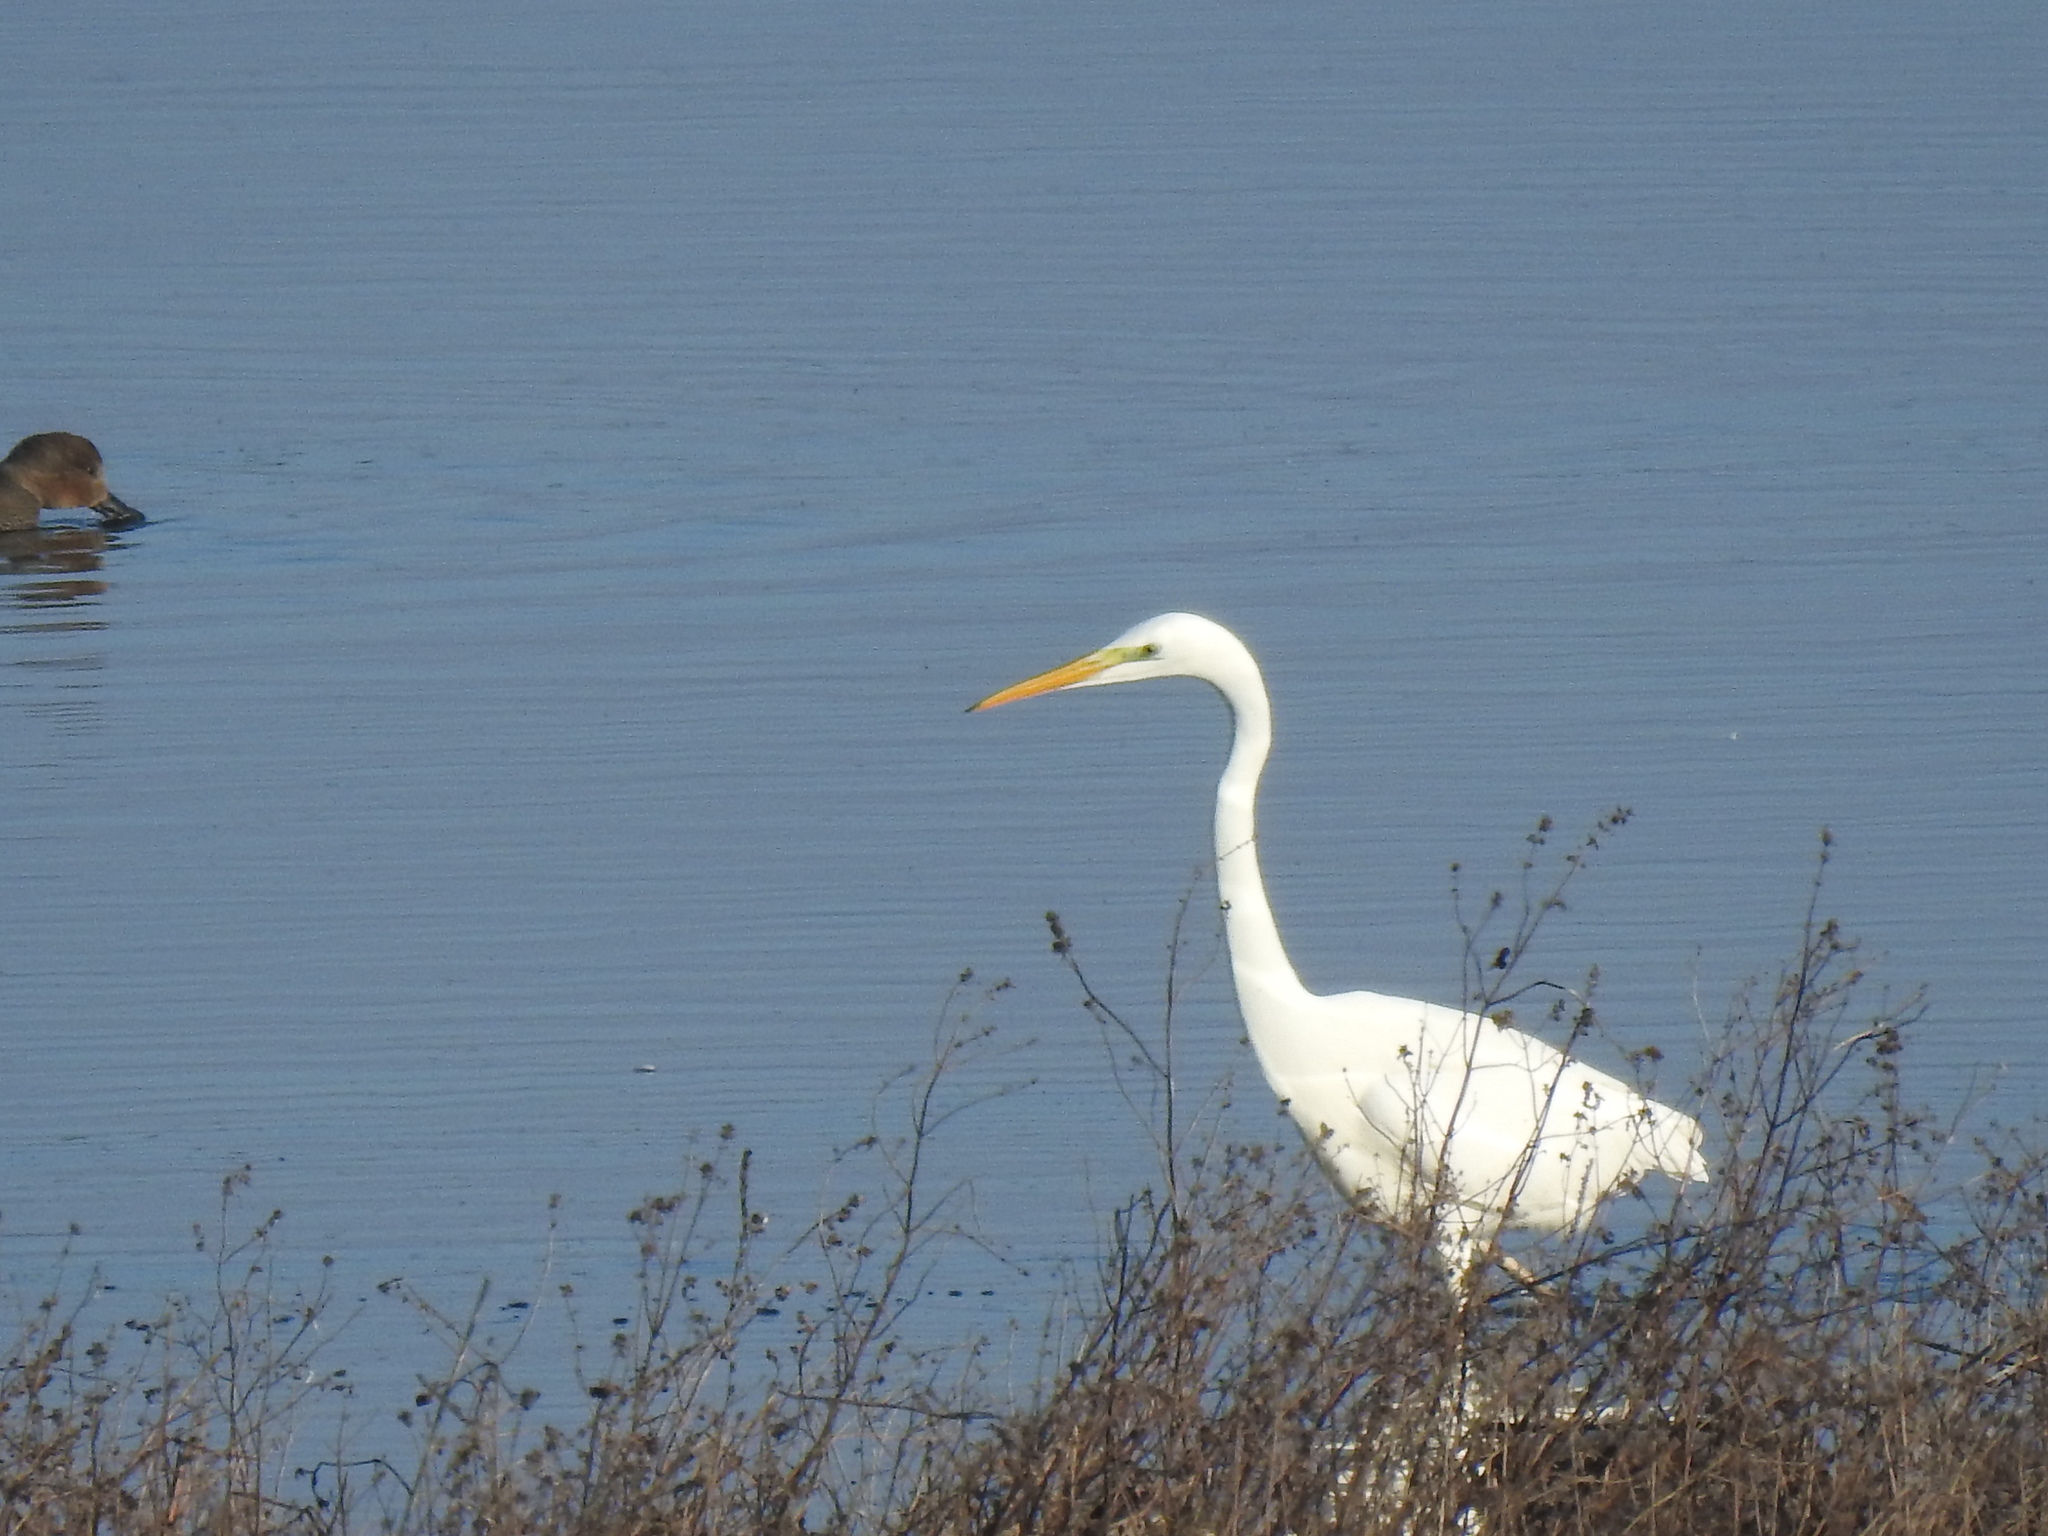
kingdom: Animalia
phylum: Chordata
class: Aves
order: Pelecaniformes
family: Ardeidae
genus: Ardea
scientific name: Ardea alba
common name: Great egret
